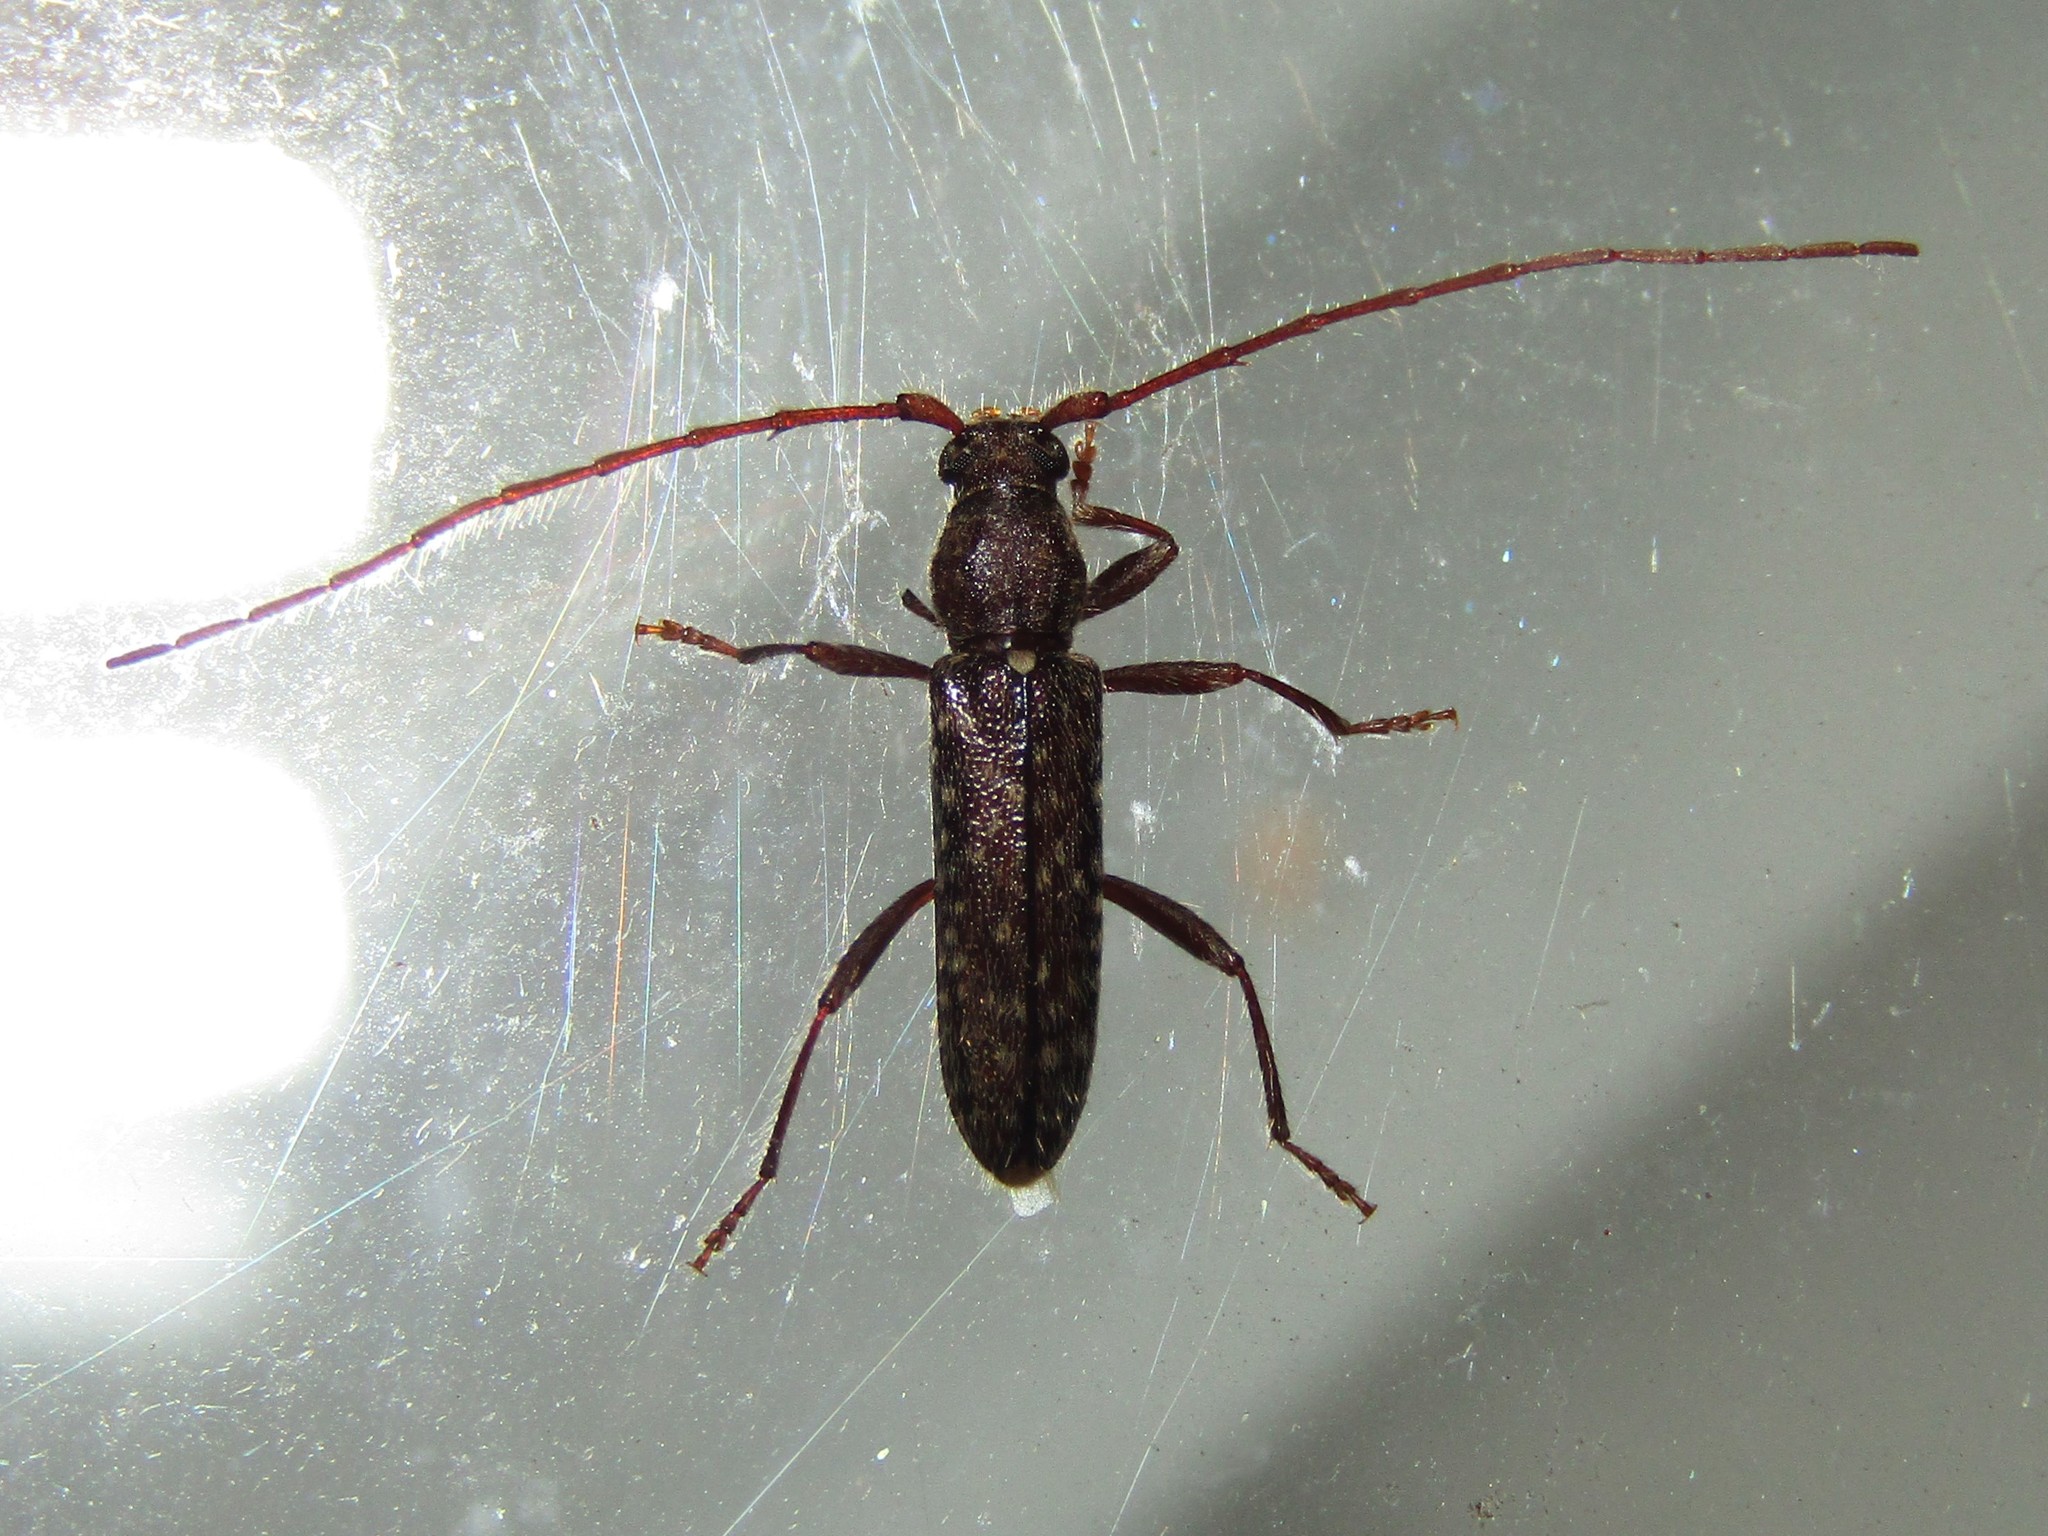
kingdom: Animalia
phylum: Arthropoda
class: Insecta
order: Coleoptera
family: Cerambycidae
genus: Anelaphus
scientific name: Anelaphus pumilus
